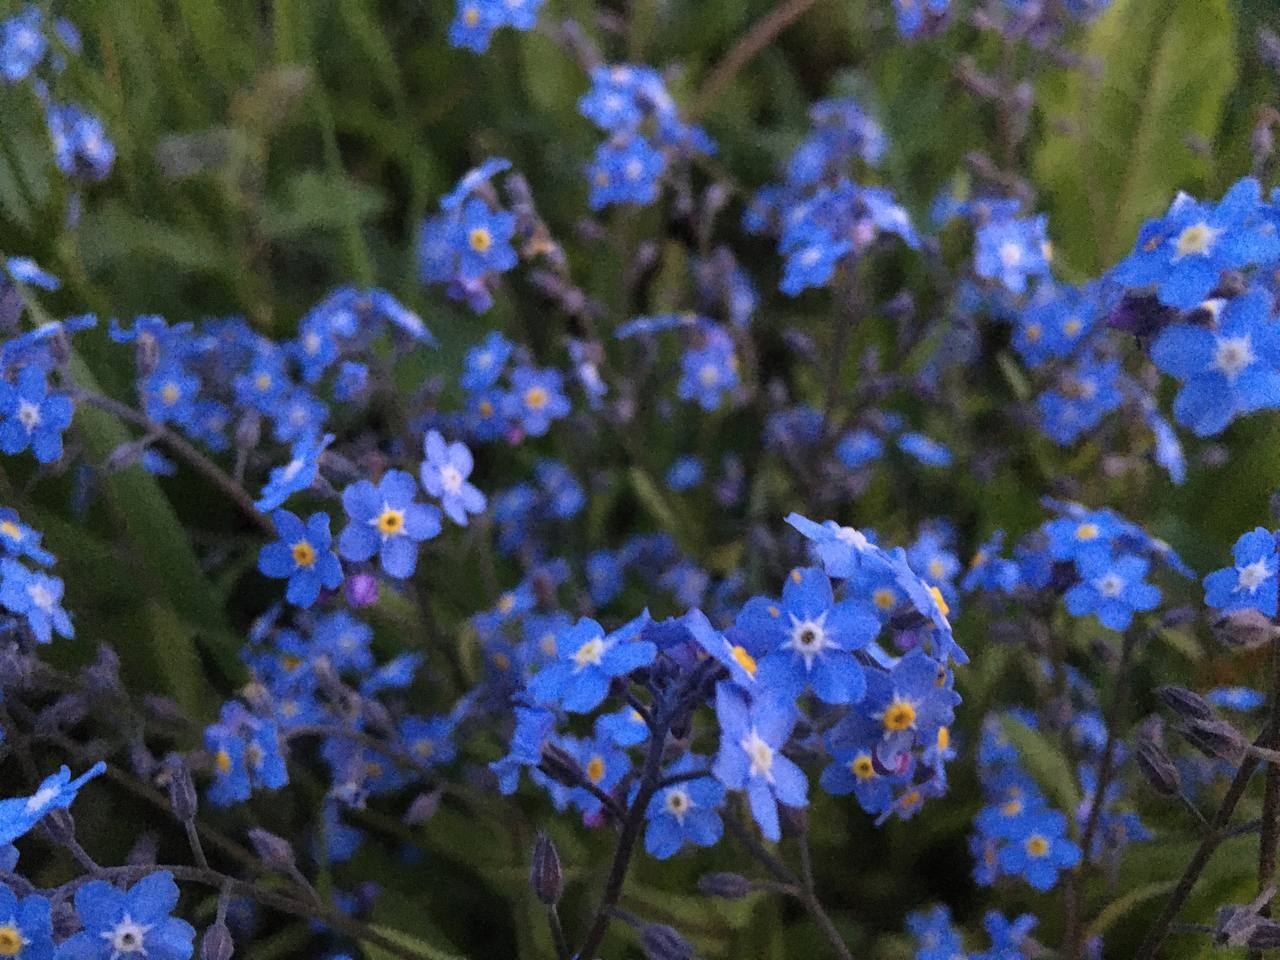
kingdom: Plantae
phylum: Tracheophyta
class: Magnoliopsida
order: Boraginales
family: Boraginaceae
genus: Myosotis
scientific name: Myosotis sylvatica
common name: Wood forget-me-not
